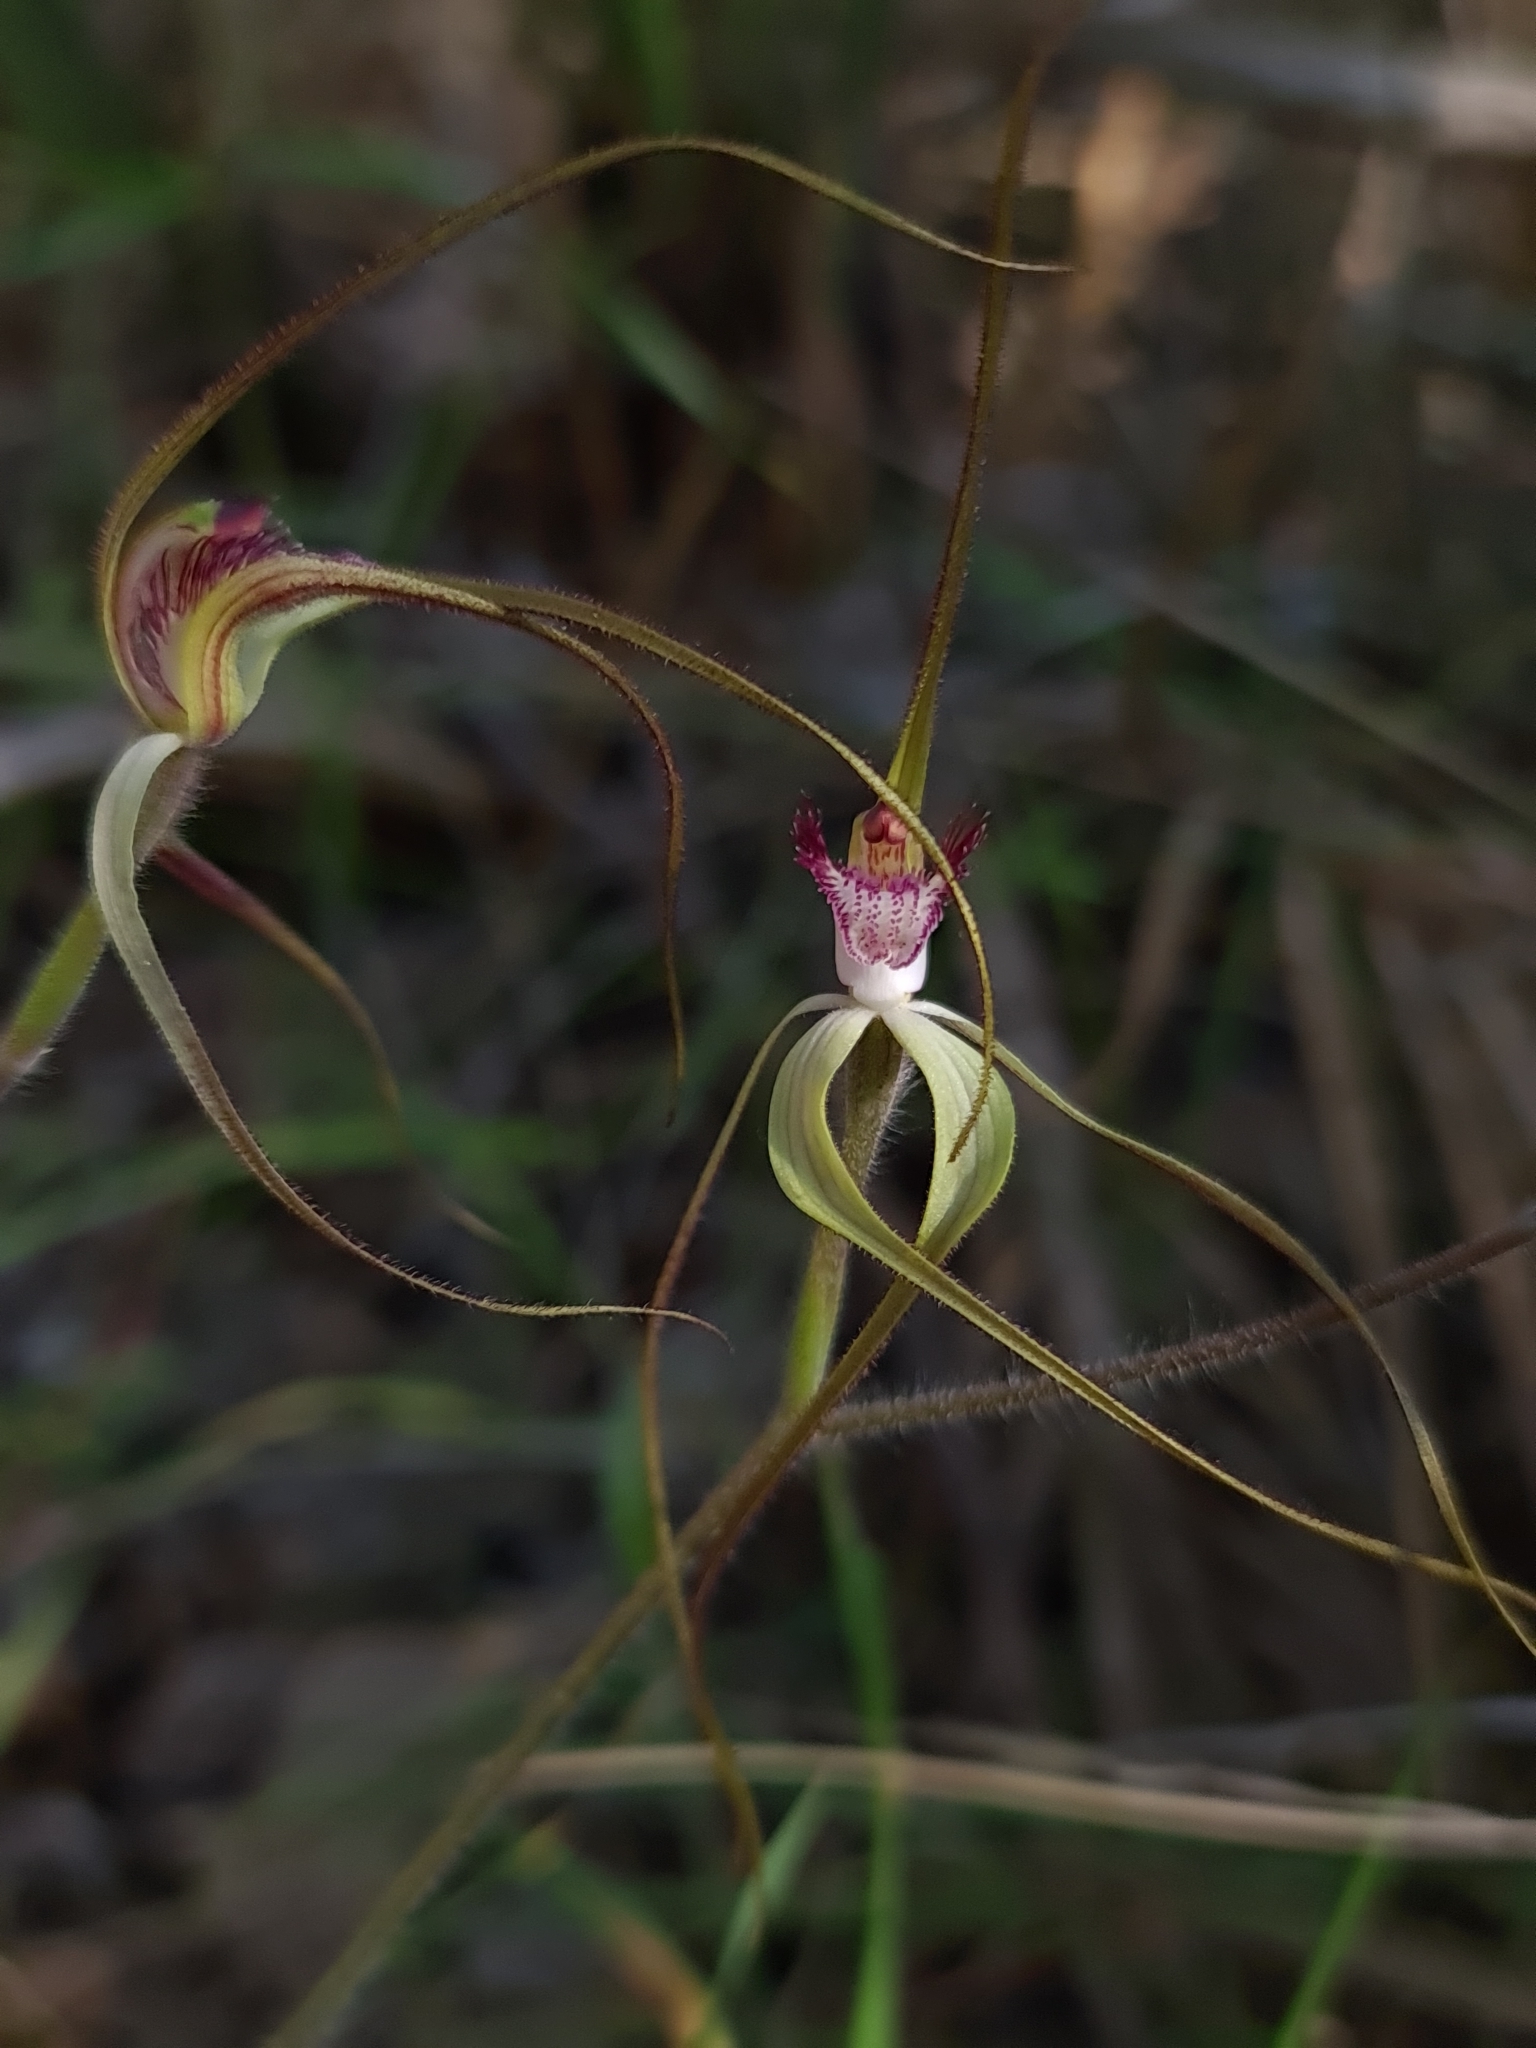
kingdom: Plantae
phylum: Tracheophyta
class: Liliopsida
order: Asparagales
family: Orchidaceae
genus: Caladenia
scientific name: Caladenia longicauda
